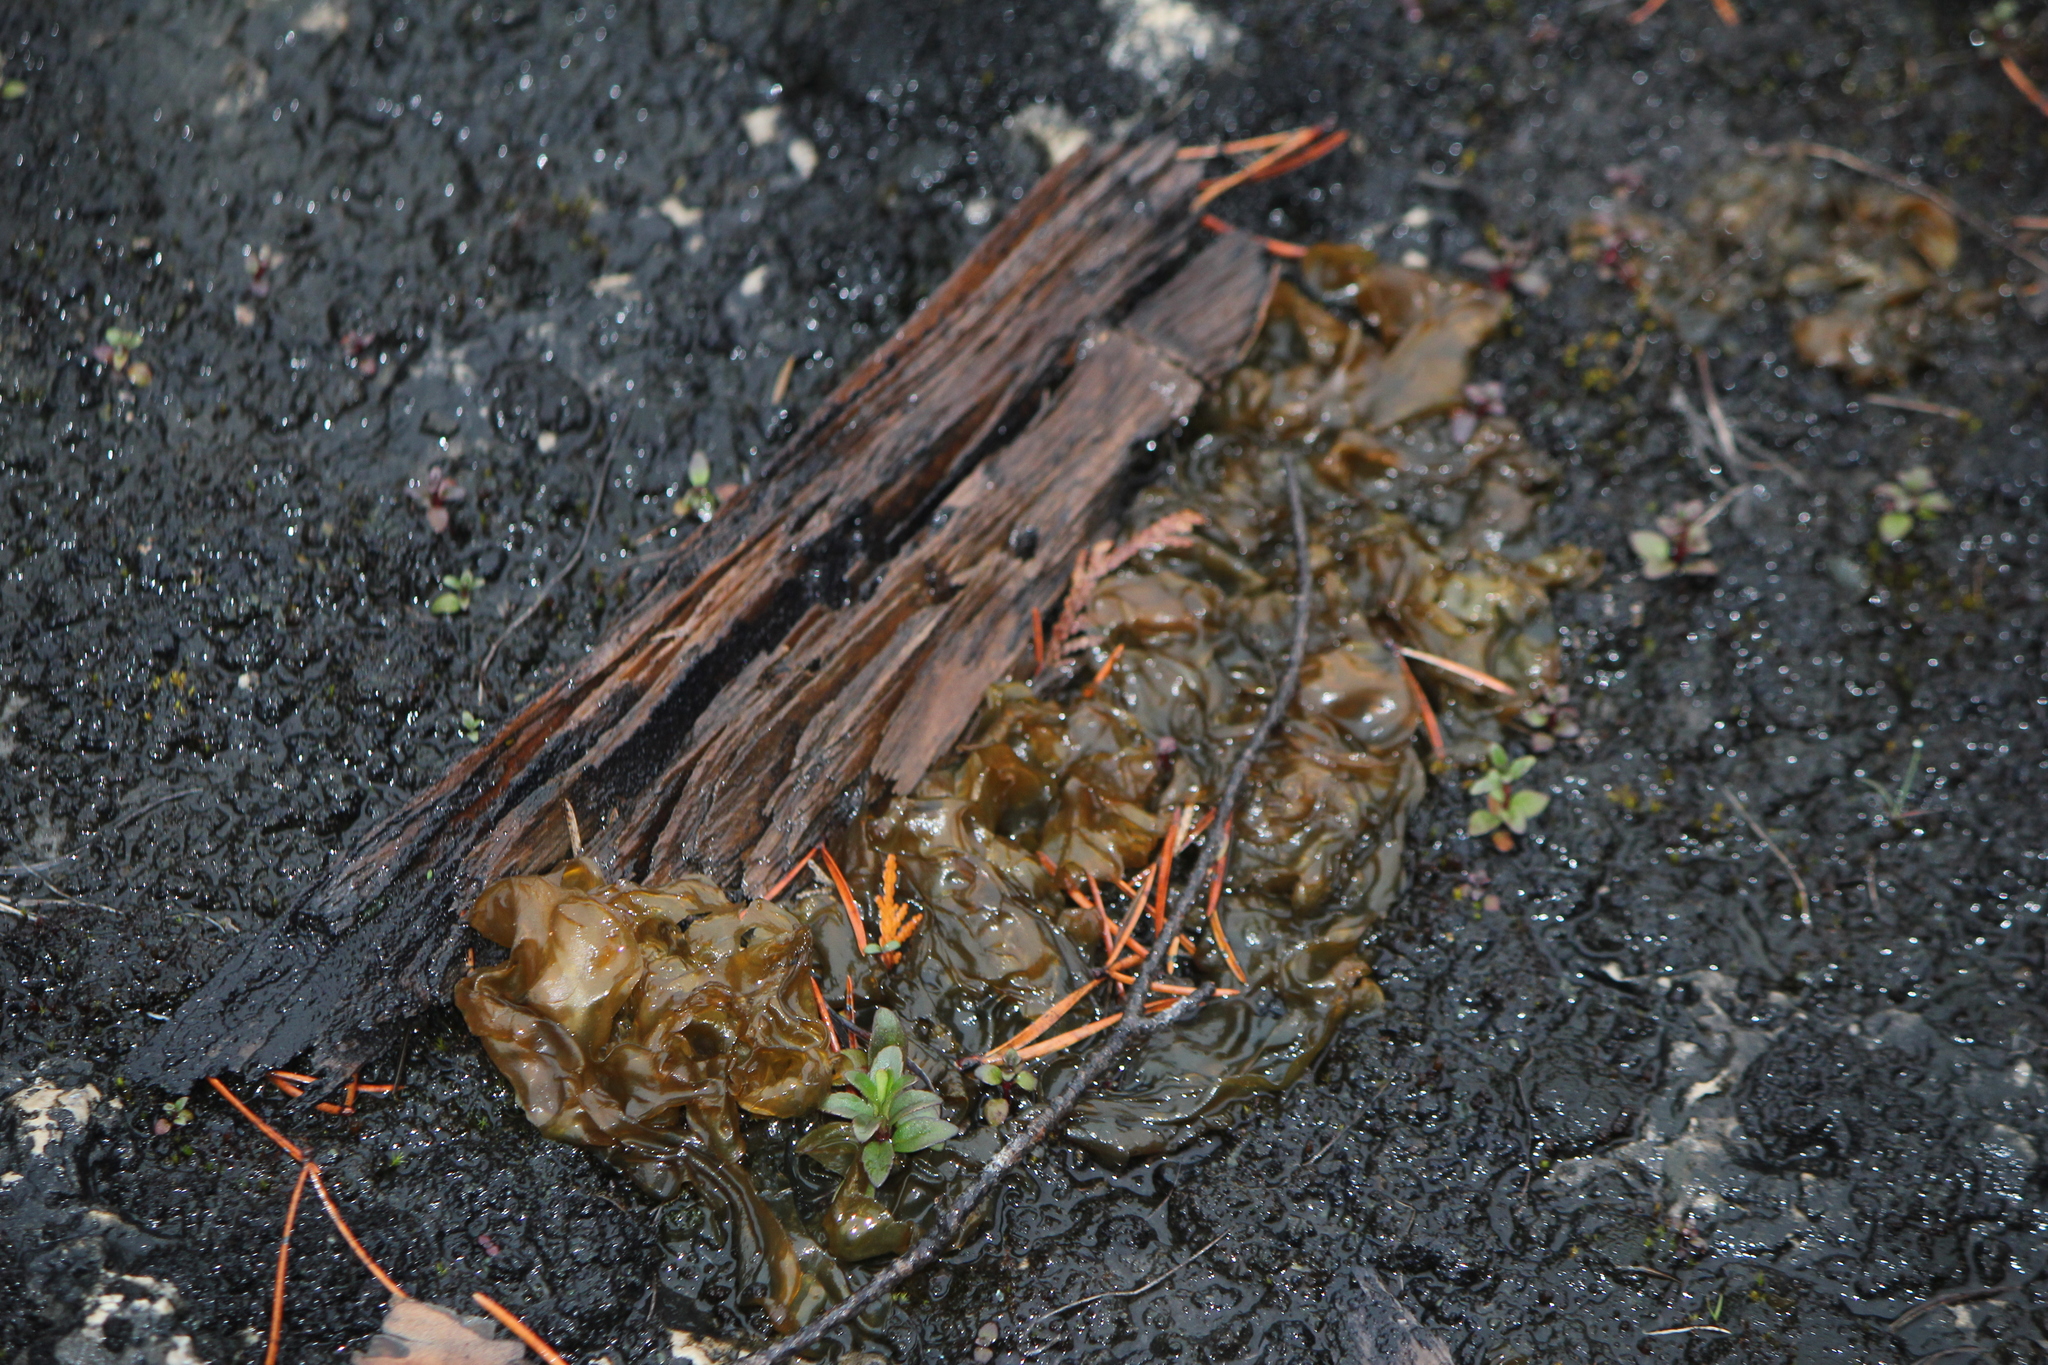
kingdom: Bacteria
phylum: Cyanobacteria
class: Cyanobacteriia
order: Cyanobacteriales
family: Nostocaceae
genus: Nostoc
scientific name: Nostoc commune
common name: Star jelly
